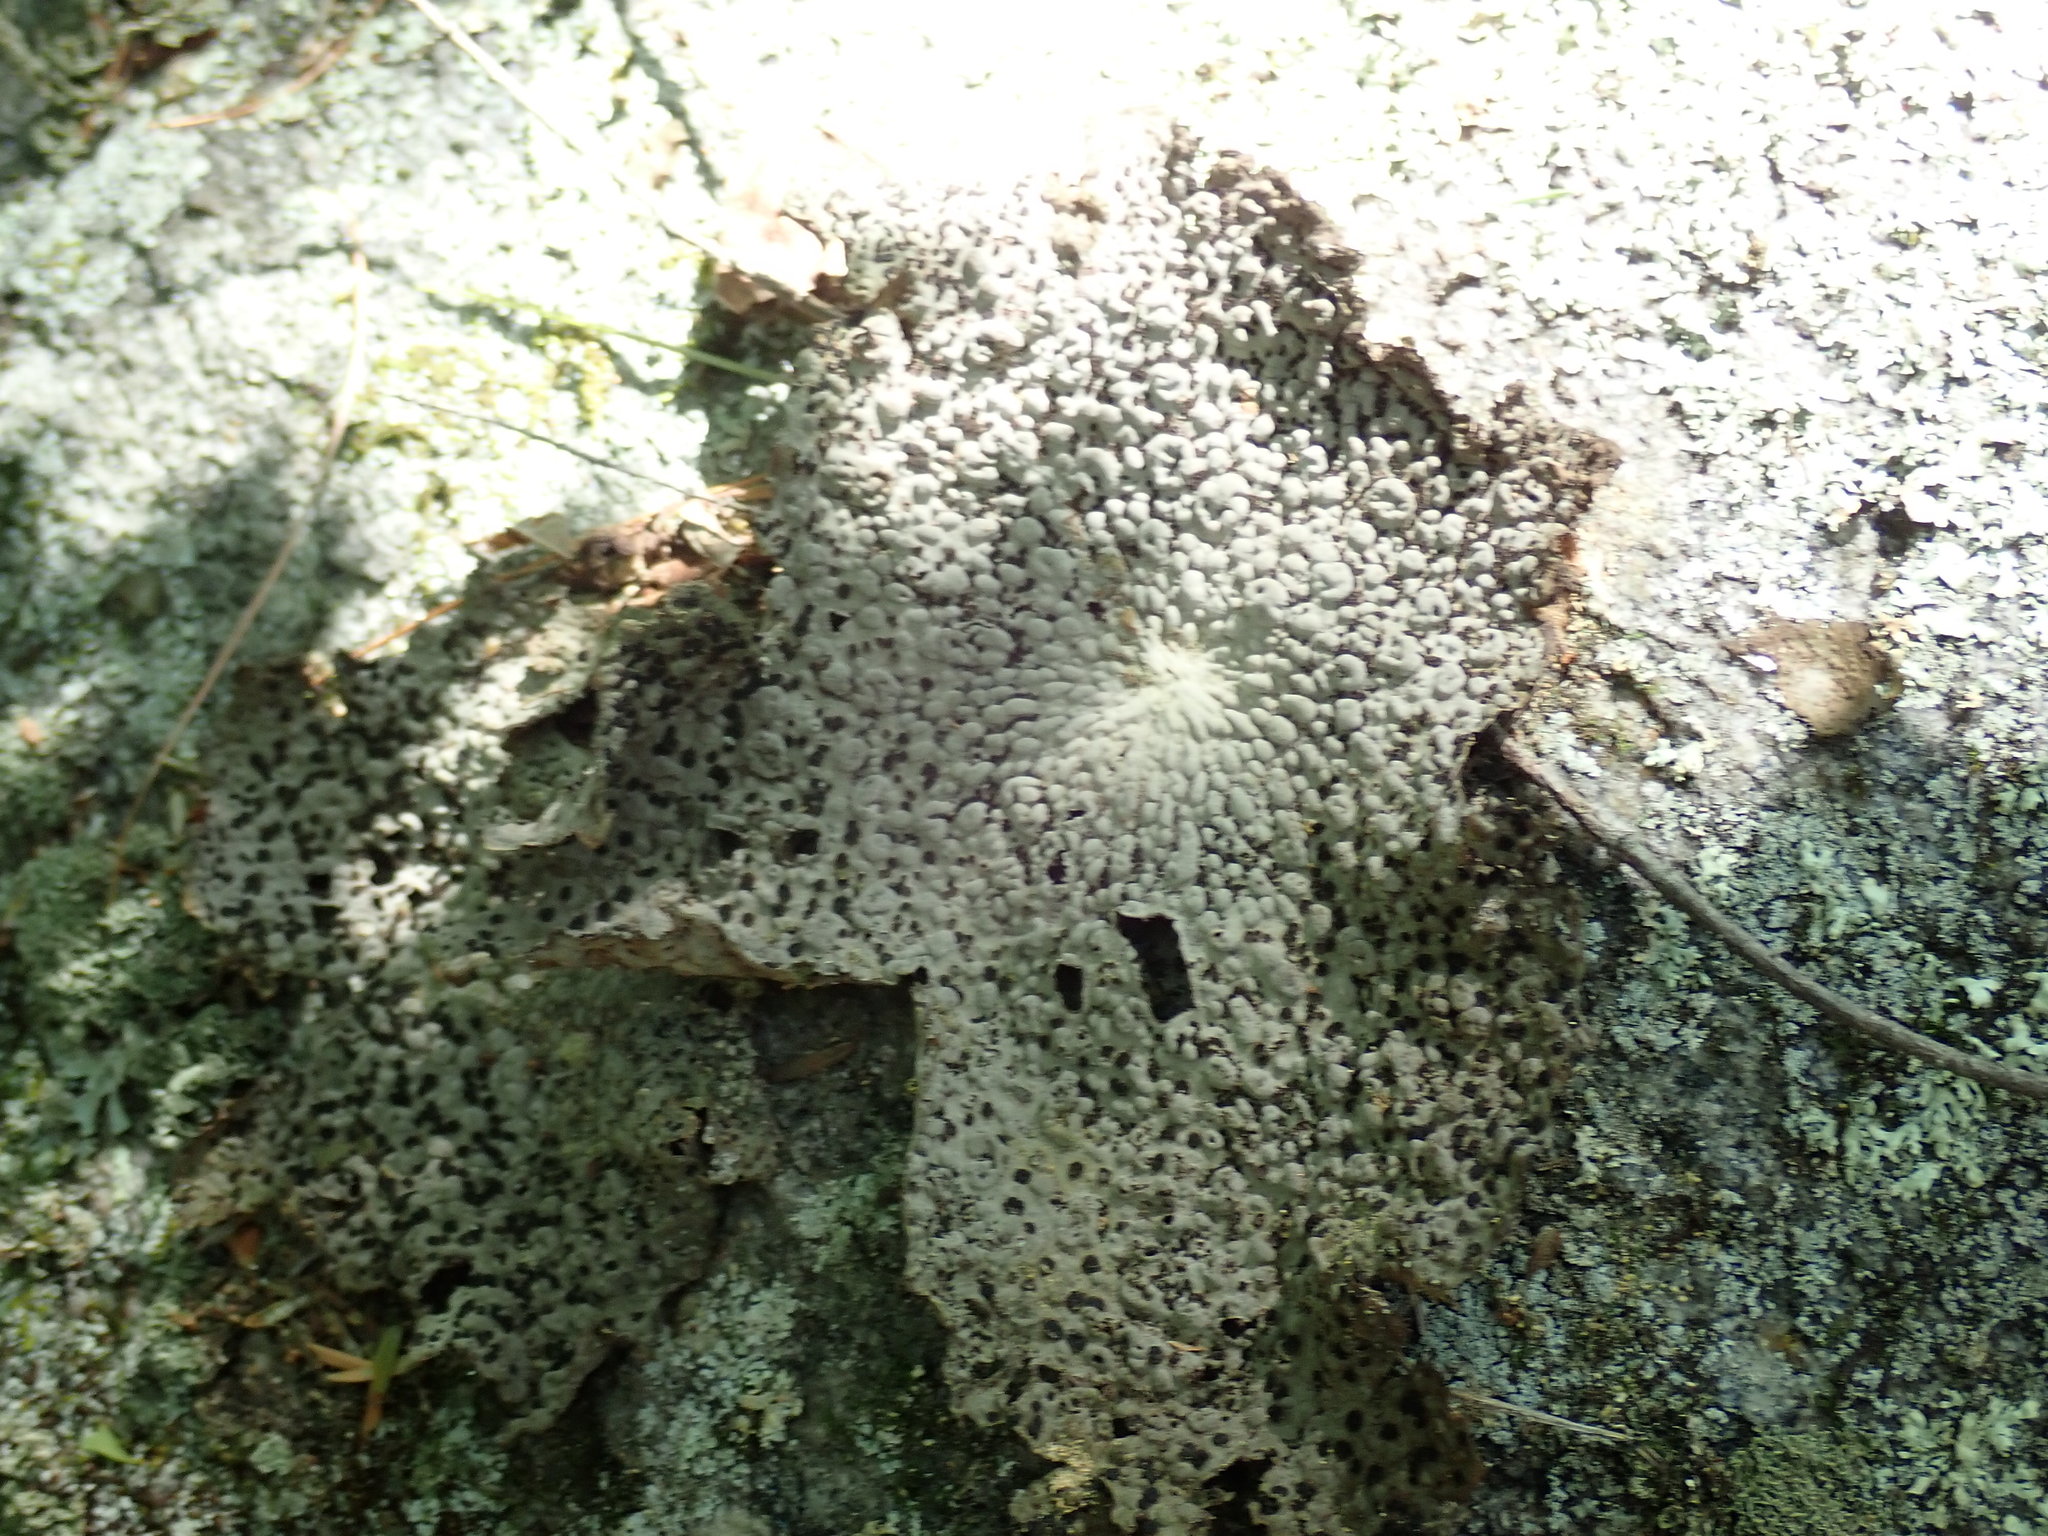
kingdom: Fungi
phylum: Ascomycota
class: Lecanoromycetes
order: Umbilicariales
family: Umbilicariaceae
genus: Lasallia
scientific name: Lasallia papulosa
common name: Common toadskin lichen
